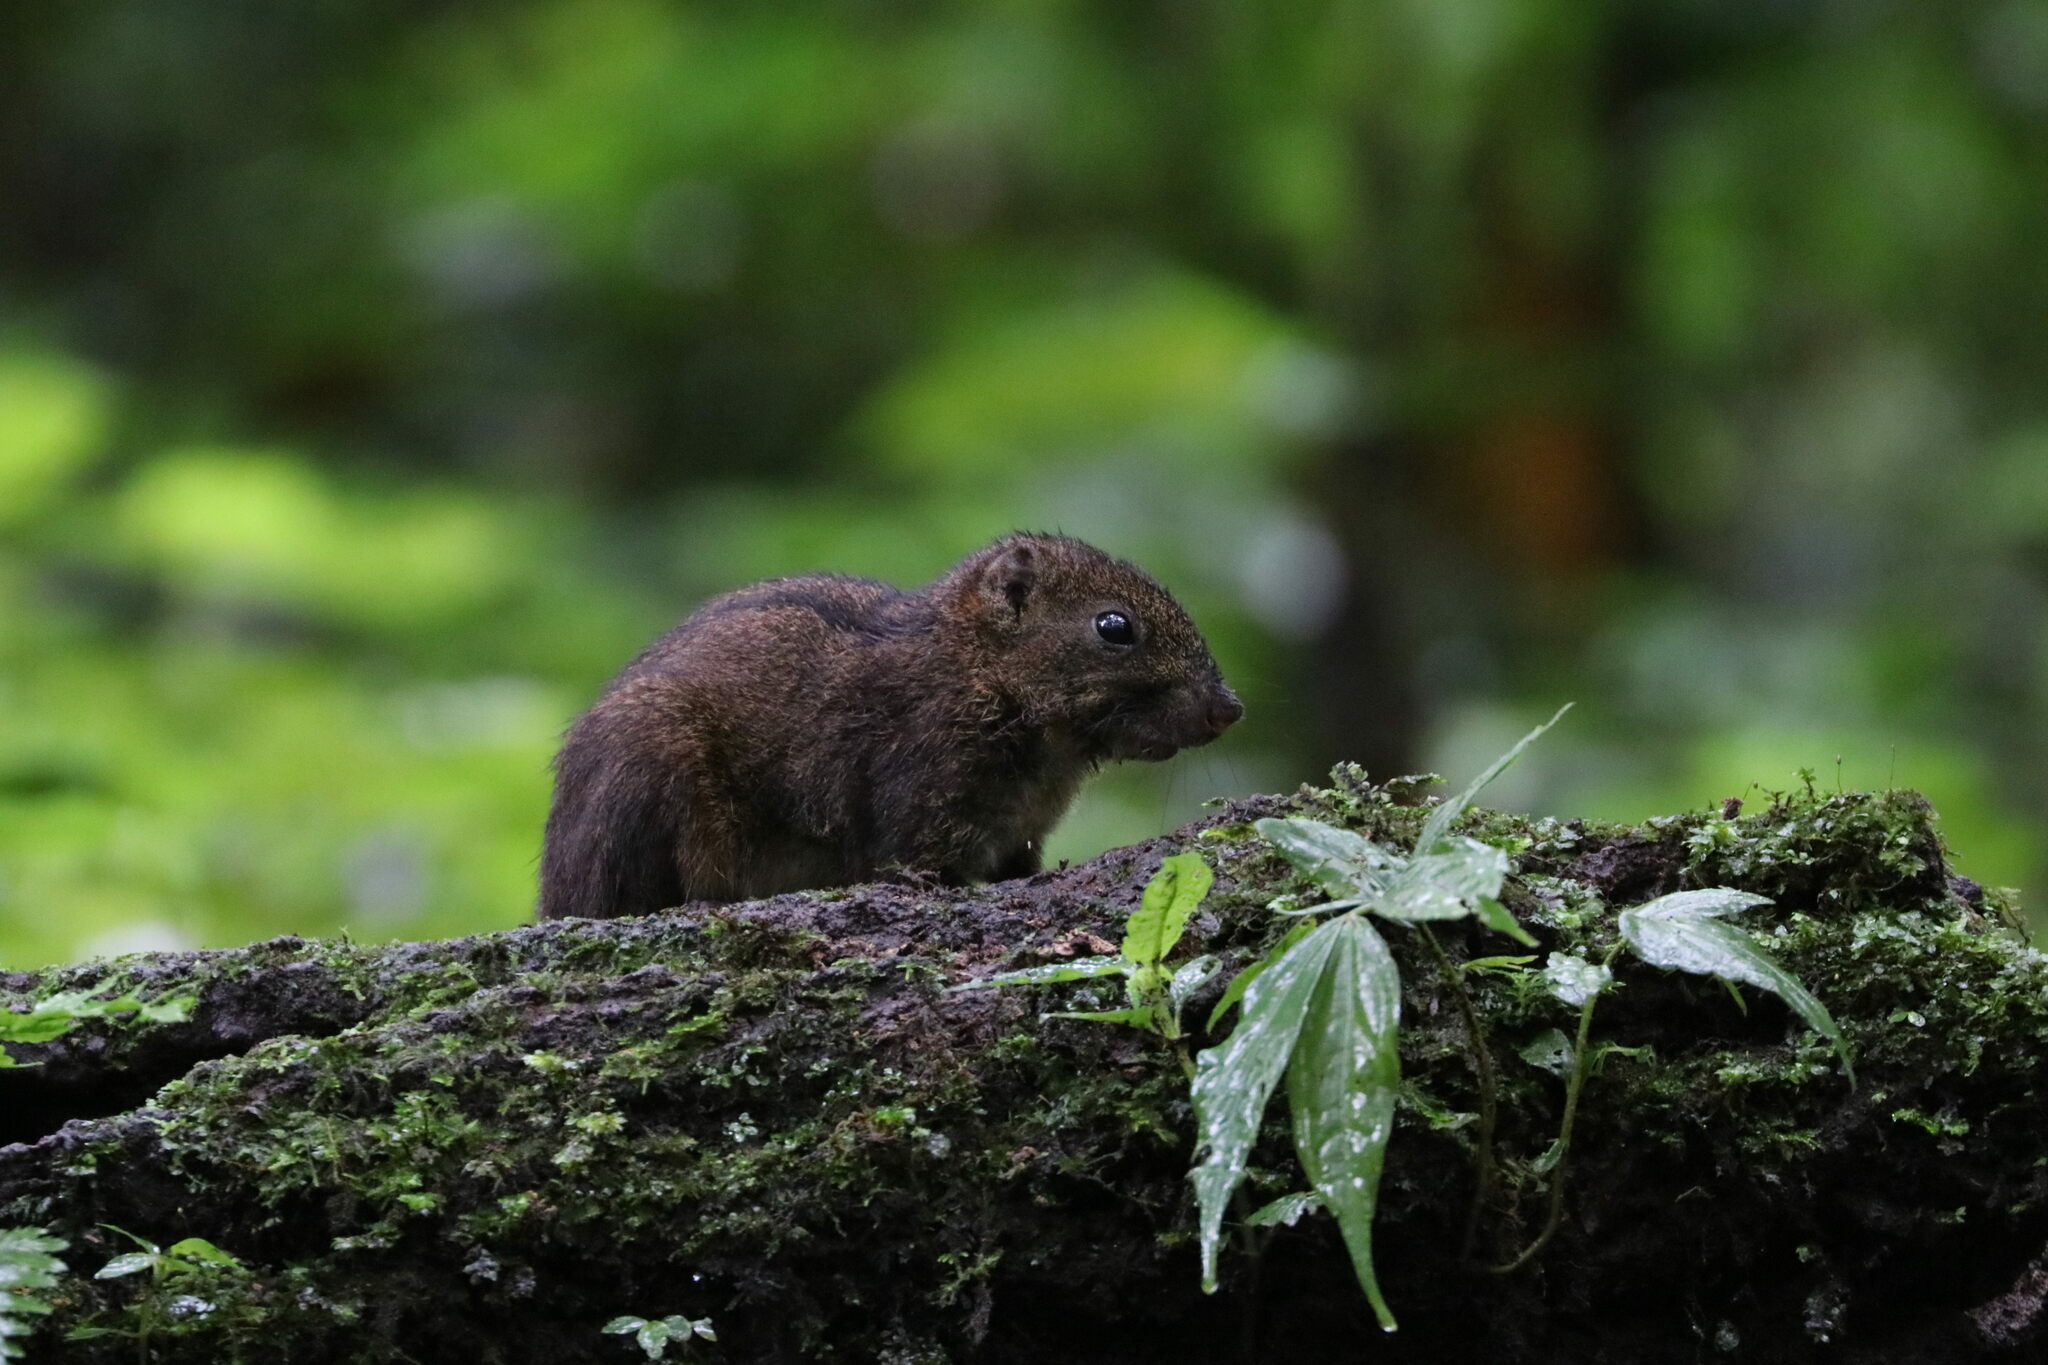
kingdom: Animalia
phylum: Chordata
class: Mammalia
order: Rodentia
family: Sciuridae
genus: Lariscus
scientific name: Lariscus insignis
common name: Three-striped ground squirrel
